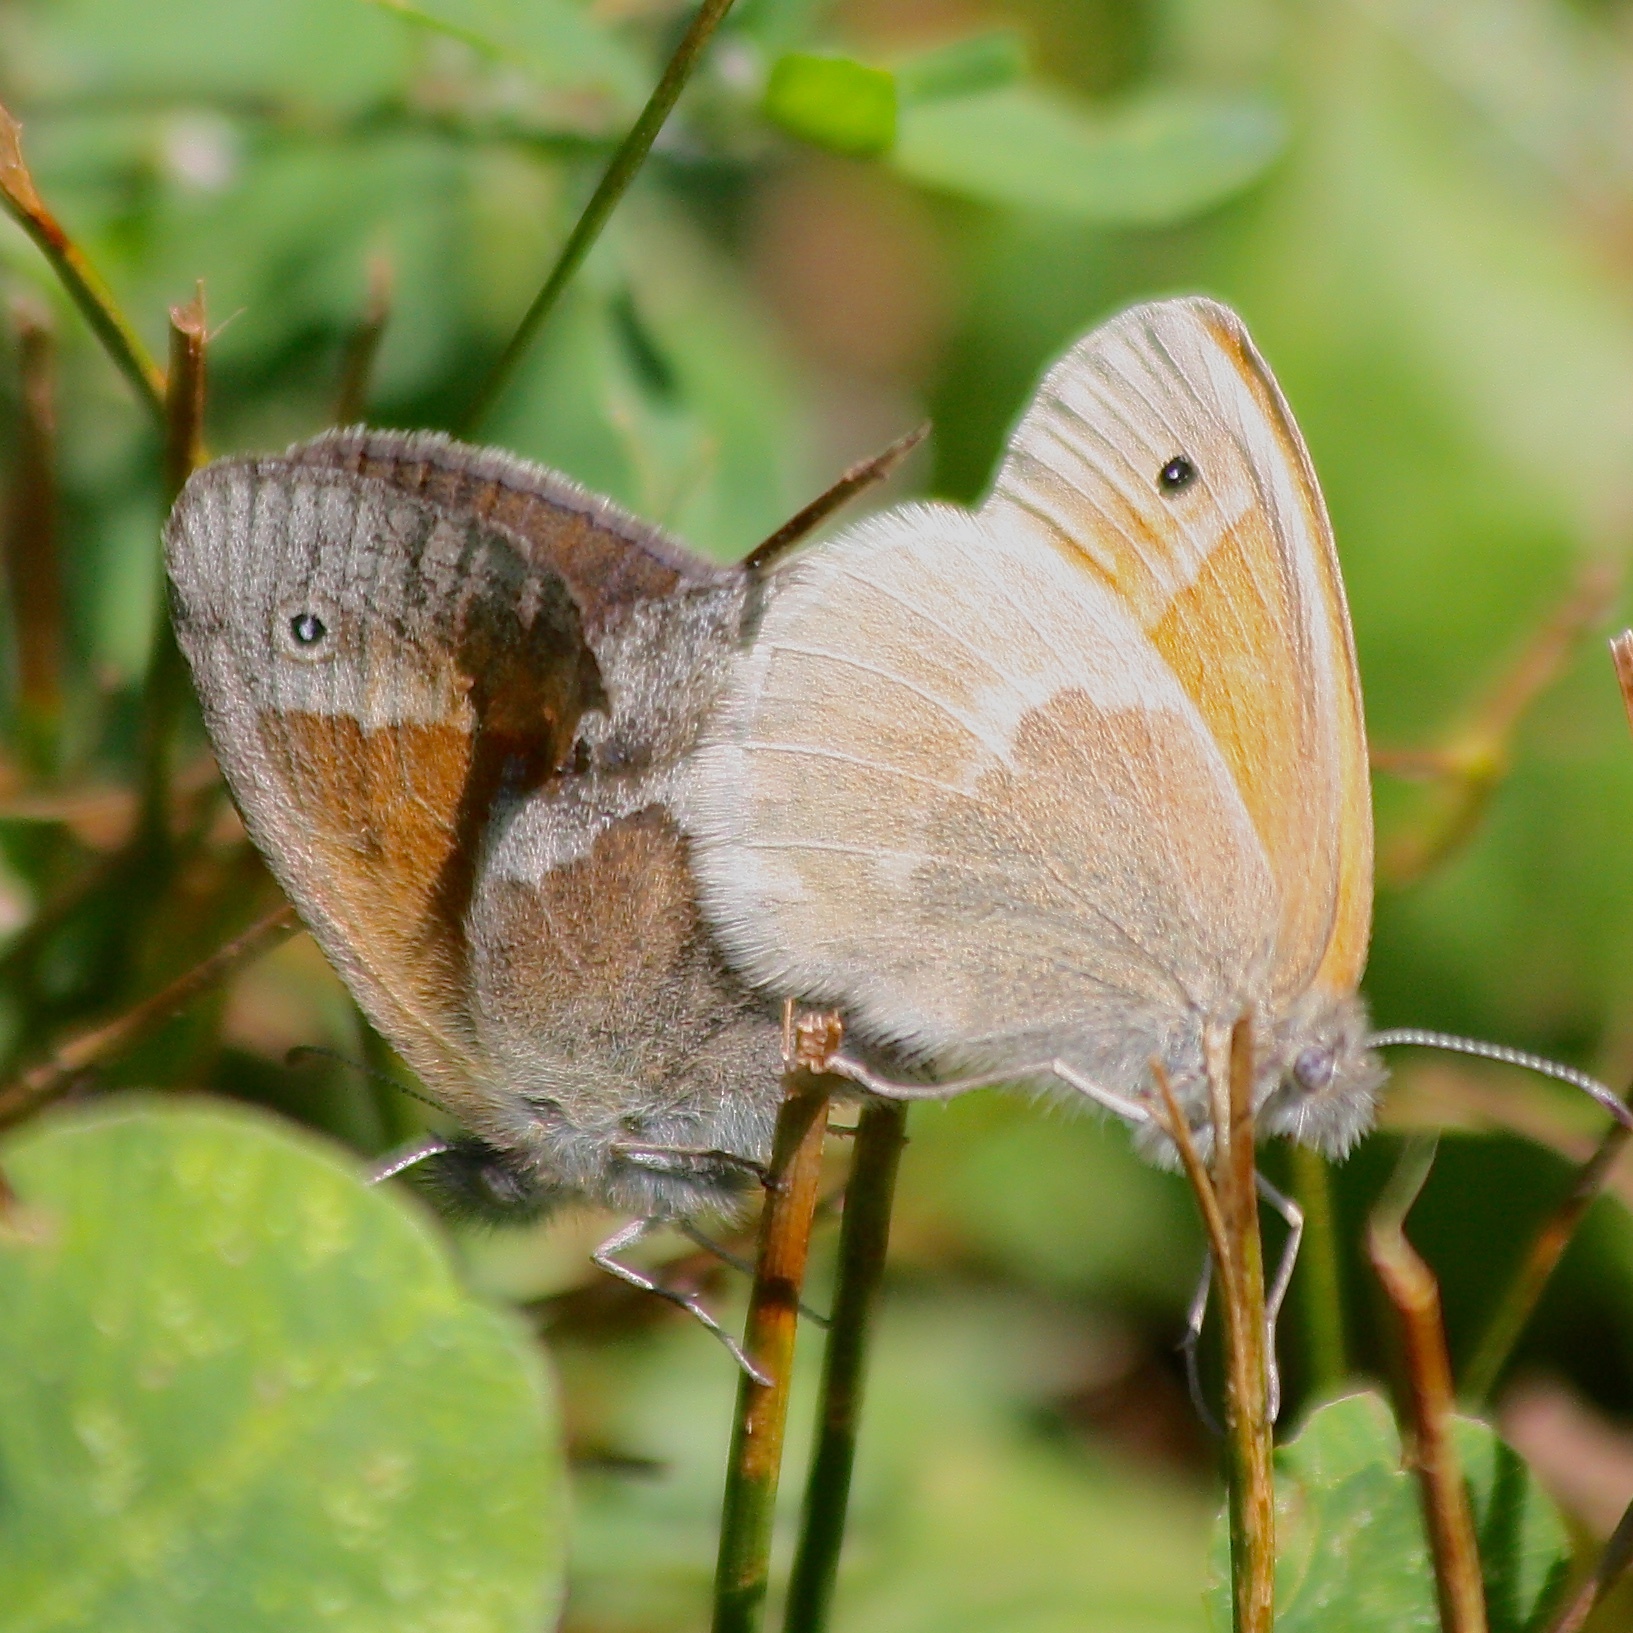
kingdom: Animalia
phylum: Arthropoda
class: Insecta
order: Lepidoptera
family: Nymphalidae
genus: Coenonympha
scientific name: Coenonympha california
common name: Common ringlet
